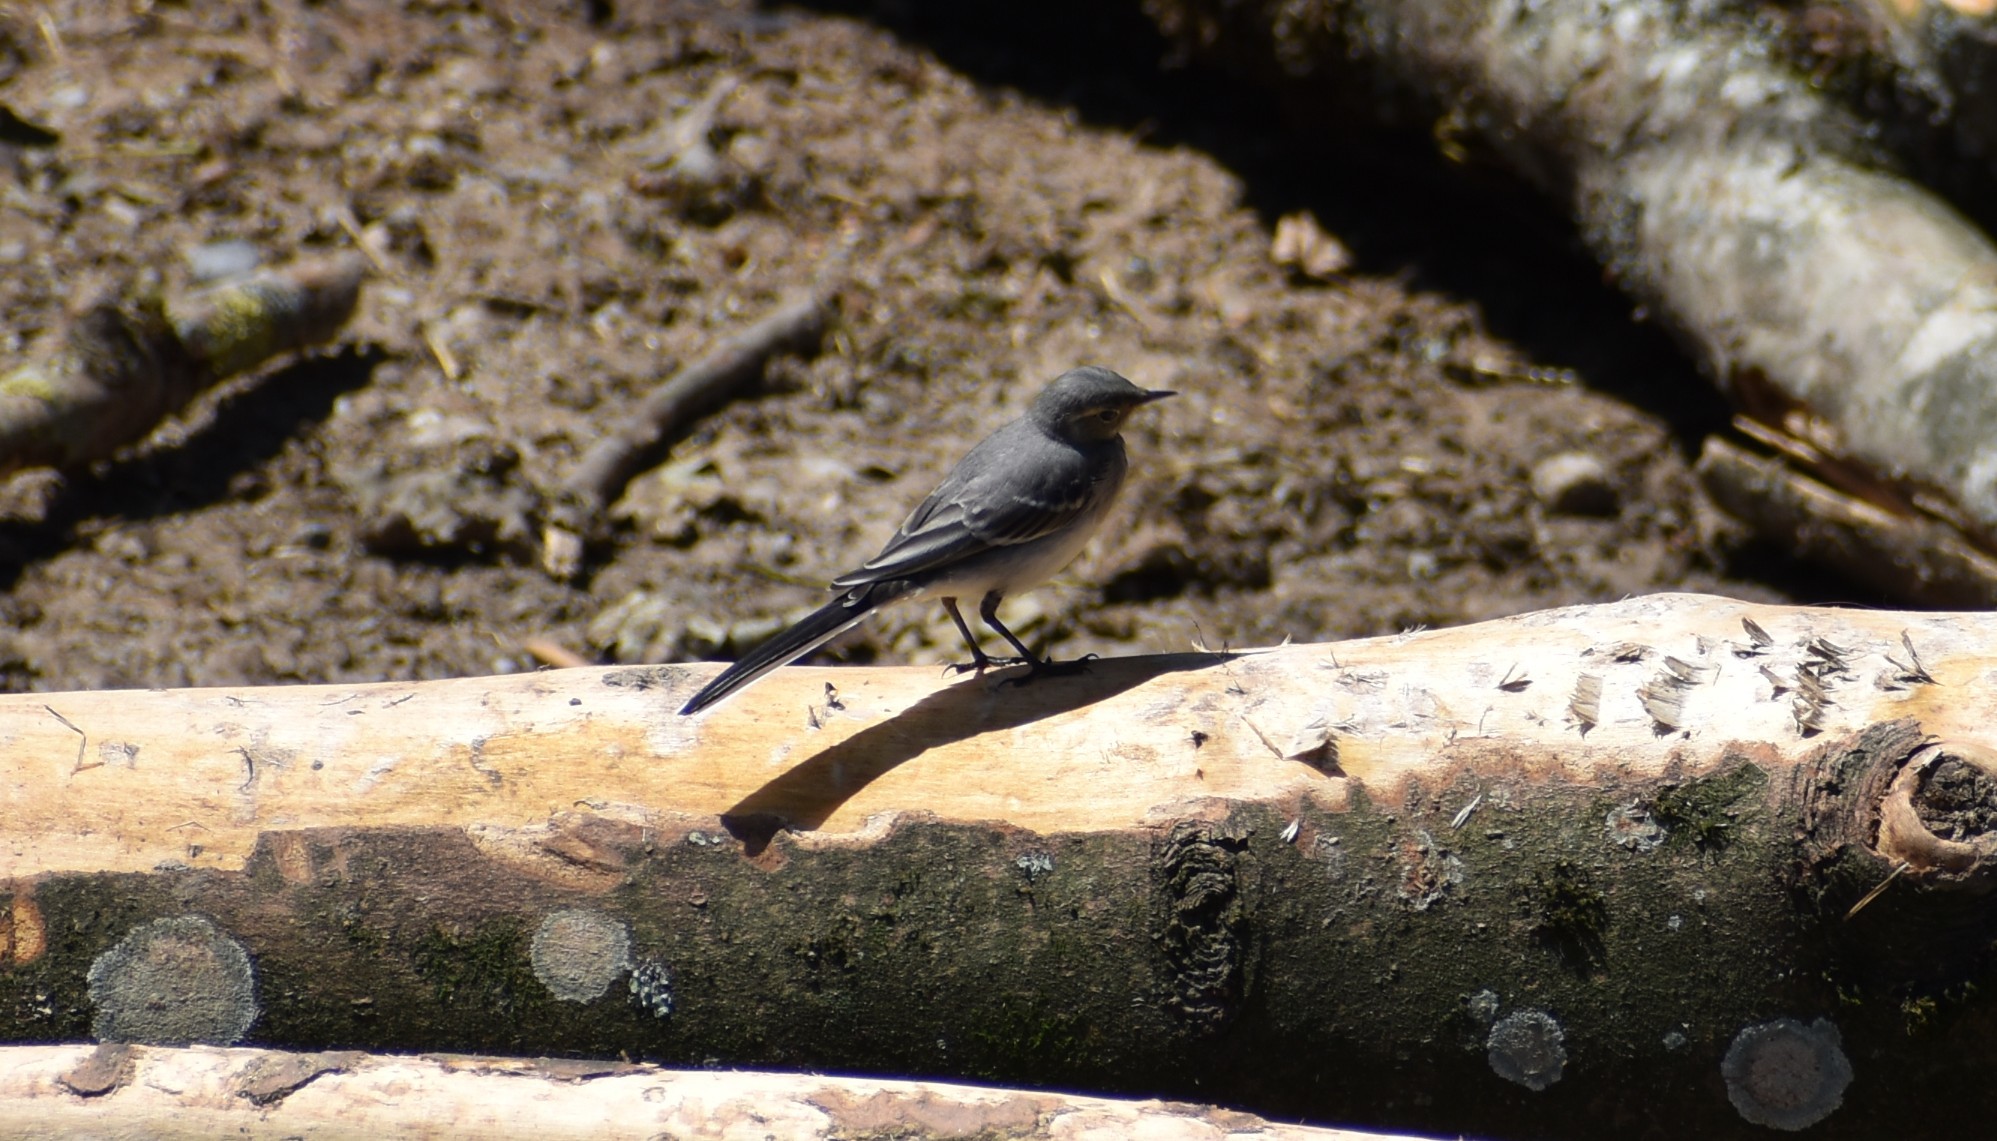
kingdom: Animalia
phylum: Chordata
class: Aves
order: Passeriformes
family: Motacillidae
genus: Motacilla
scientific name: Motacilla alba
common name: White wagtail
